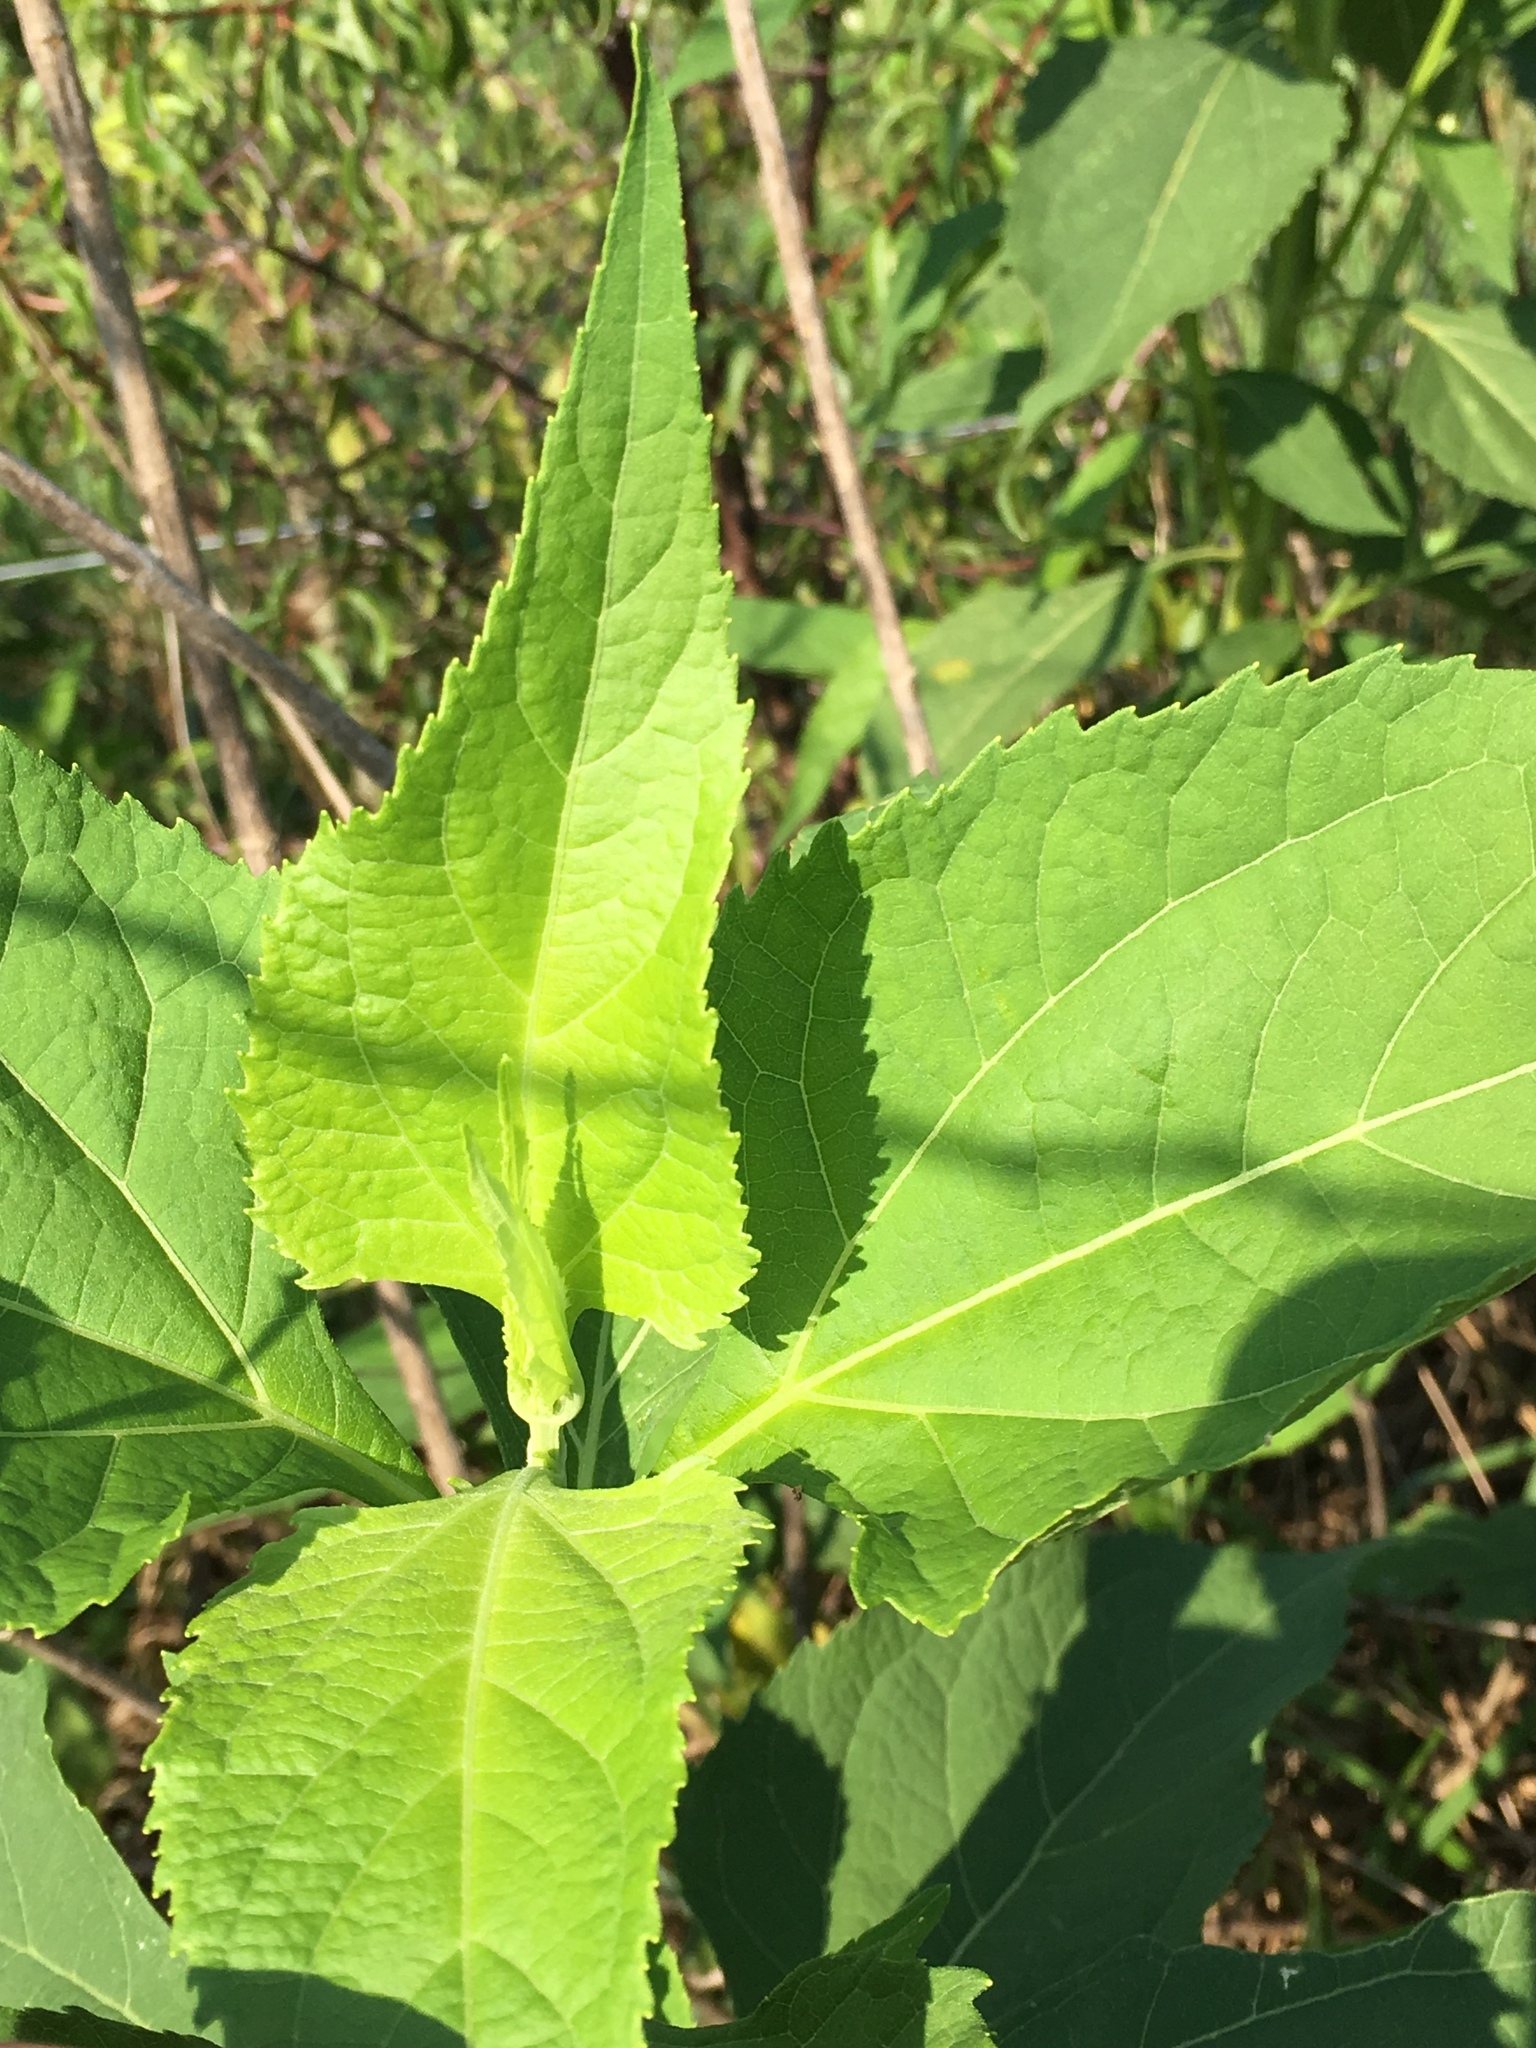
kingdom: Plantae
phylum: Tracheophyta
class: Magnoliopsida
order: Asterales
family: Asteraceae
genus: Verbesina
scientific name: Verbesina occidentalis
